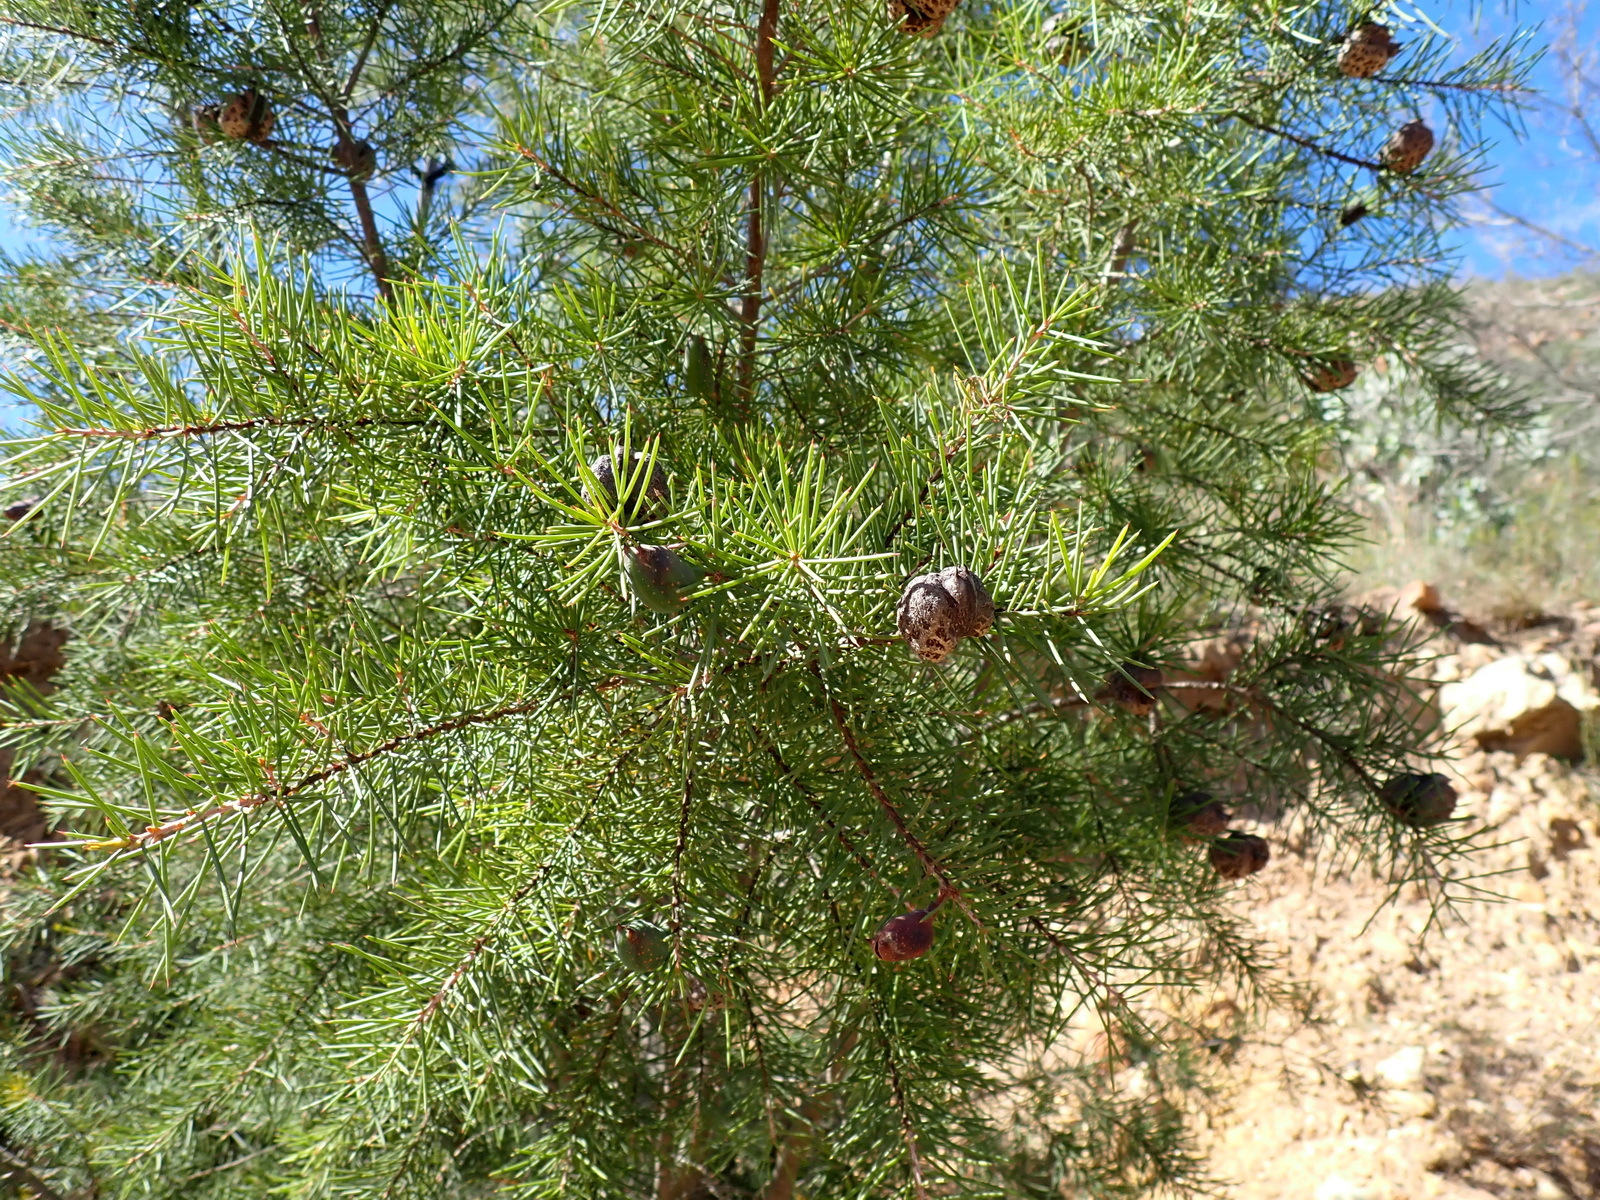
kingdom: Plantae
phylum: Tracheophyta
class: Magnoliopsida
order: Proteales
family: Proteaceae
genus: Hakea
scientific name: Hakea sericea
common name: Needle bush
